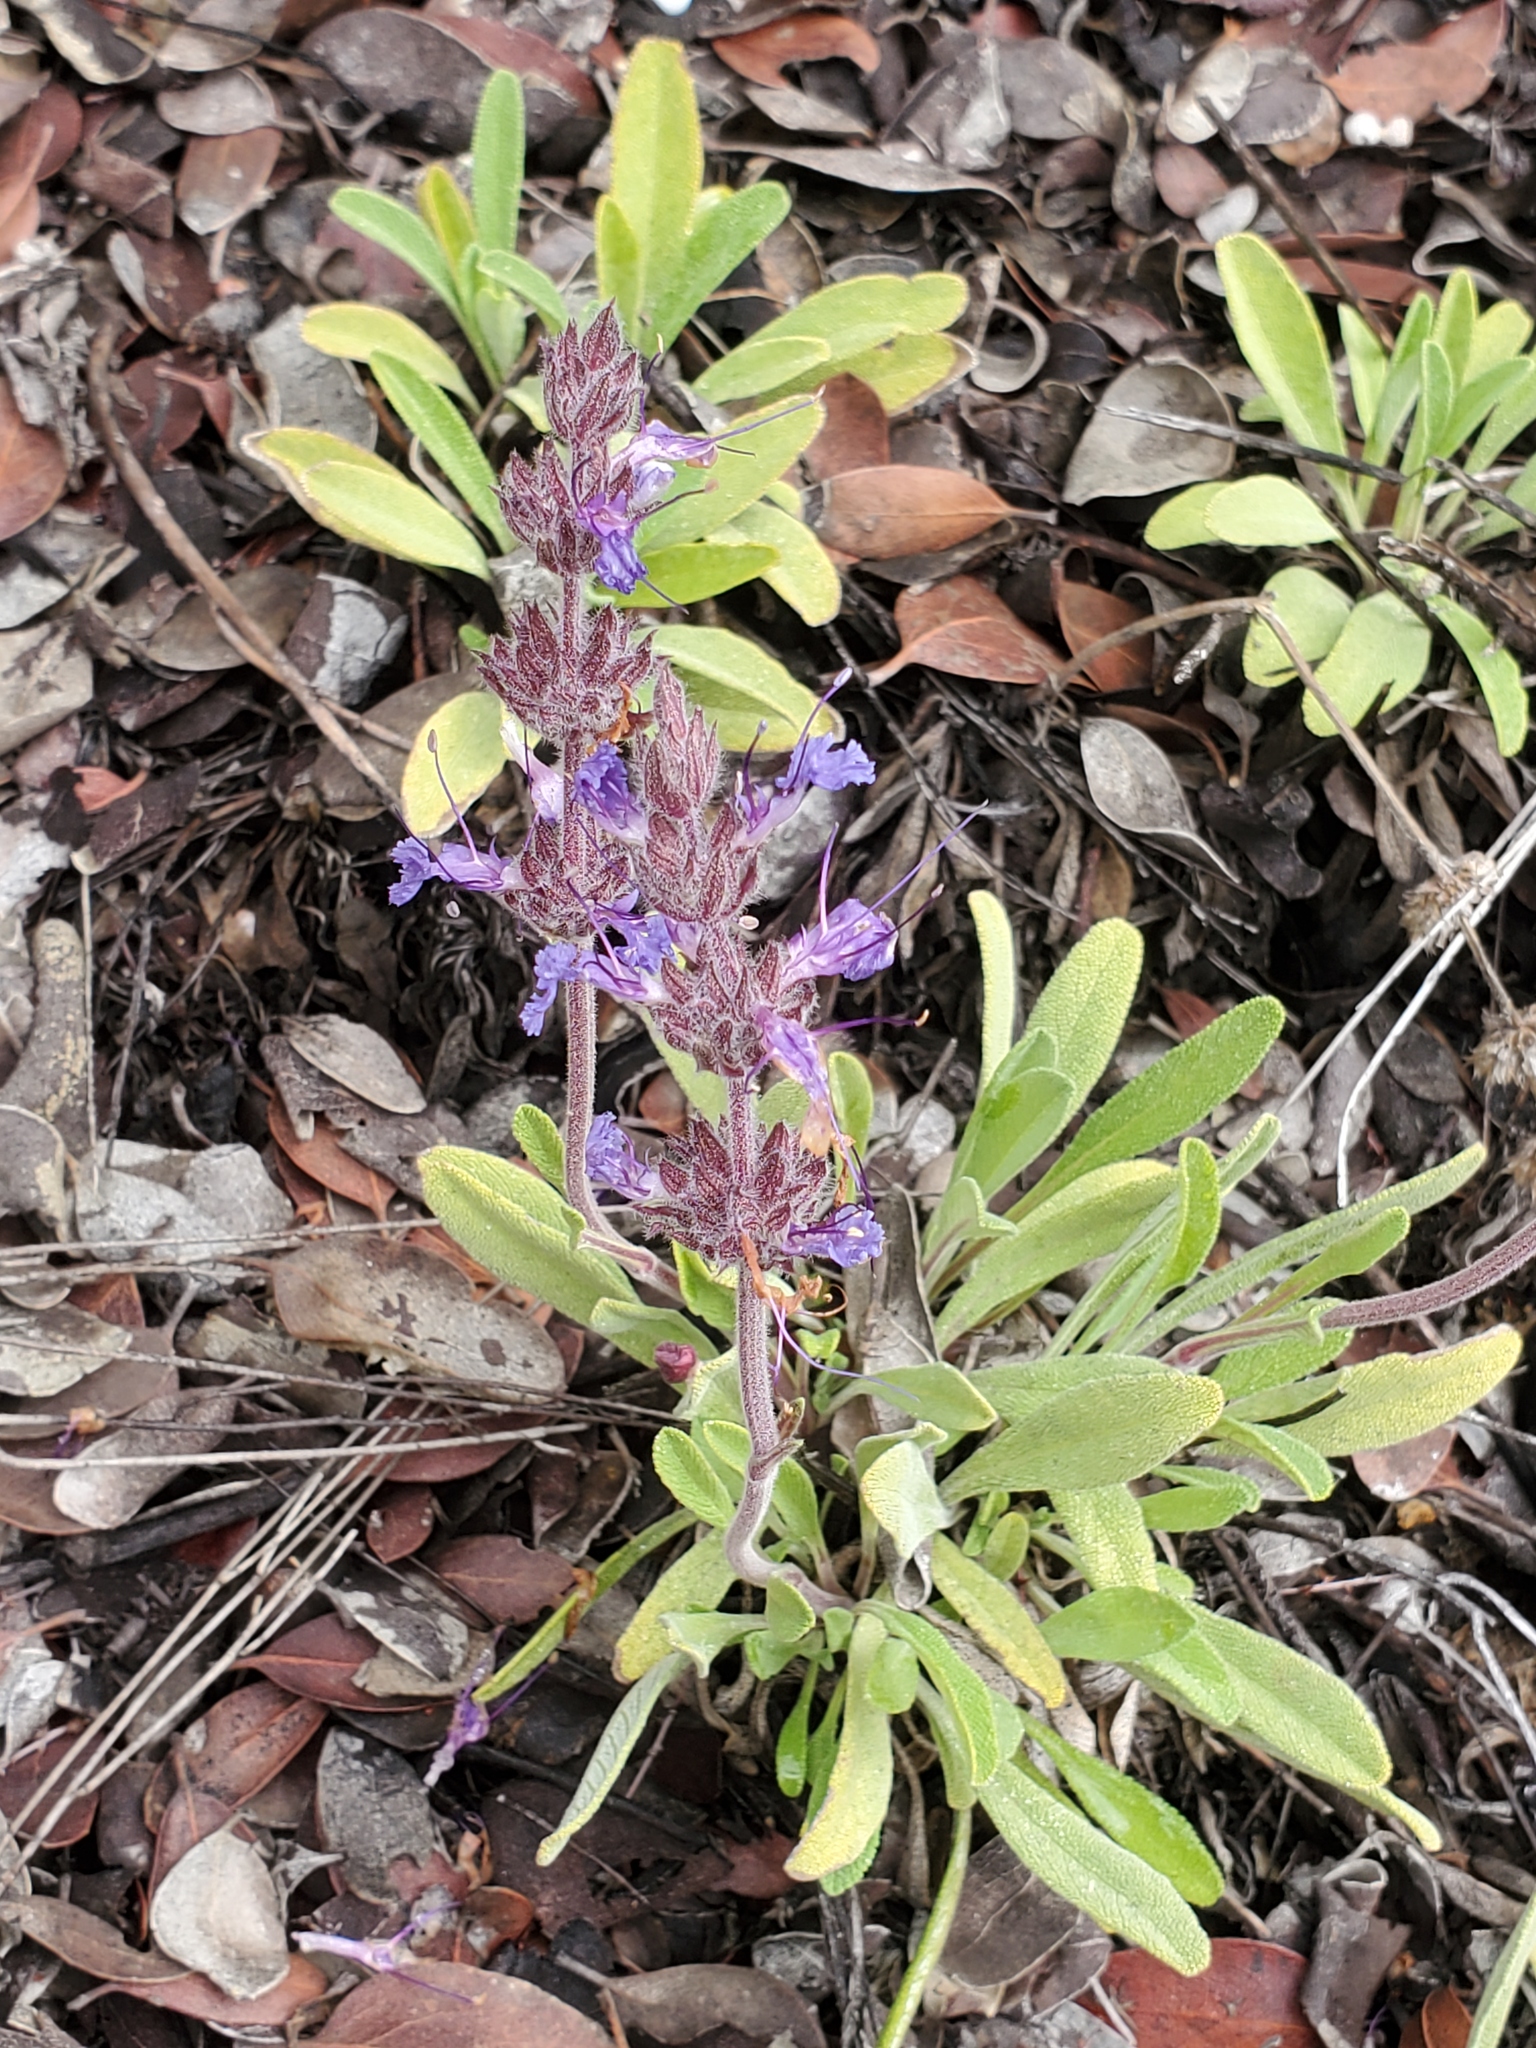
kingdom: Plantae
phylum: Tracheophyta
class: Magnoliopsida
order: Lamiales
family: Lamiaceae
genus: Salvia
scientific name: Salvia sonomensis
